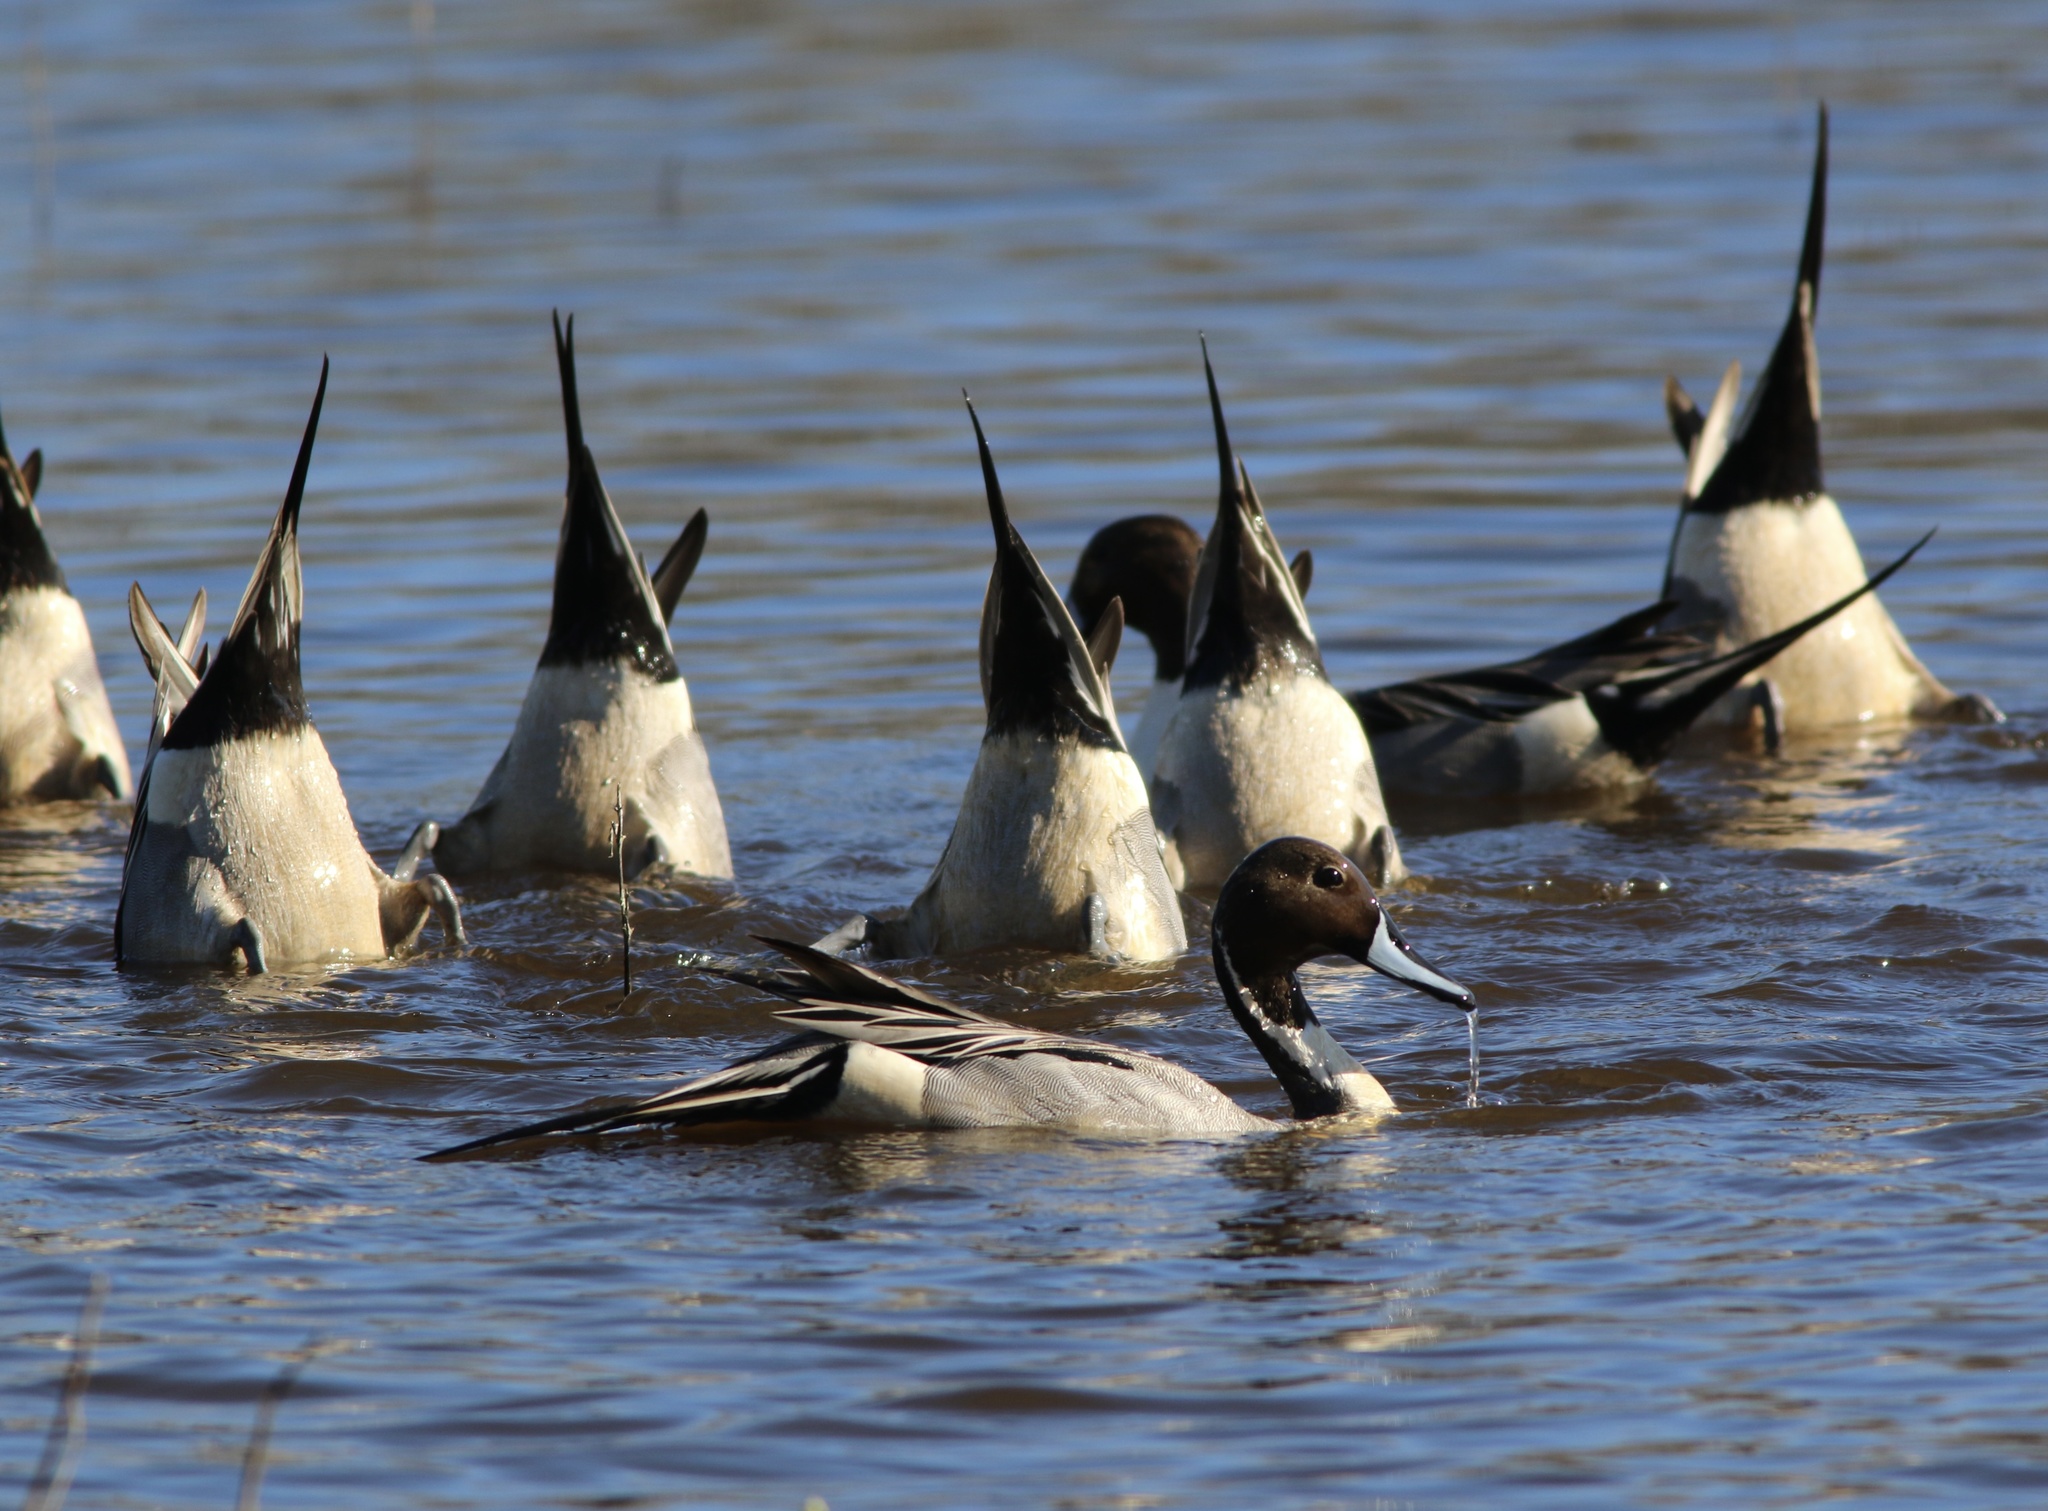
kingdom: Animalia
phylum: Chordata
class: Aves
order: Anseriformes
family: Anatidae
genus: Anas
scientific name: Anas acuta
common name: Northern pintail
